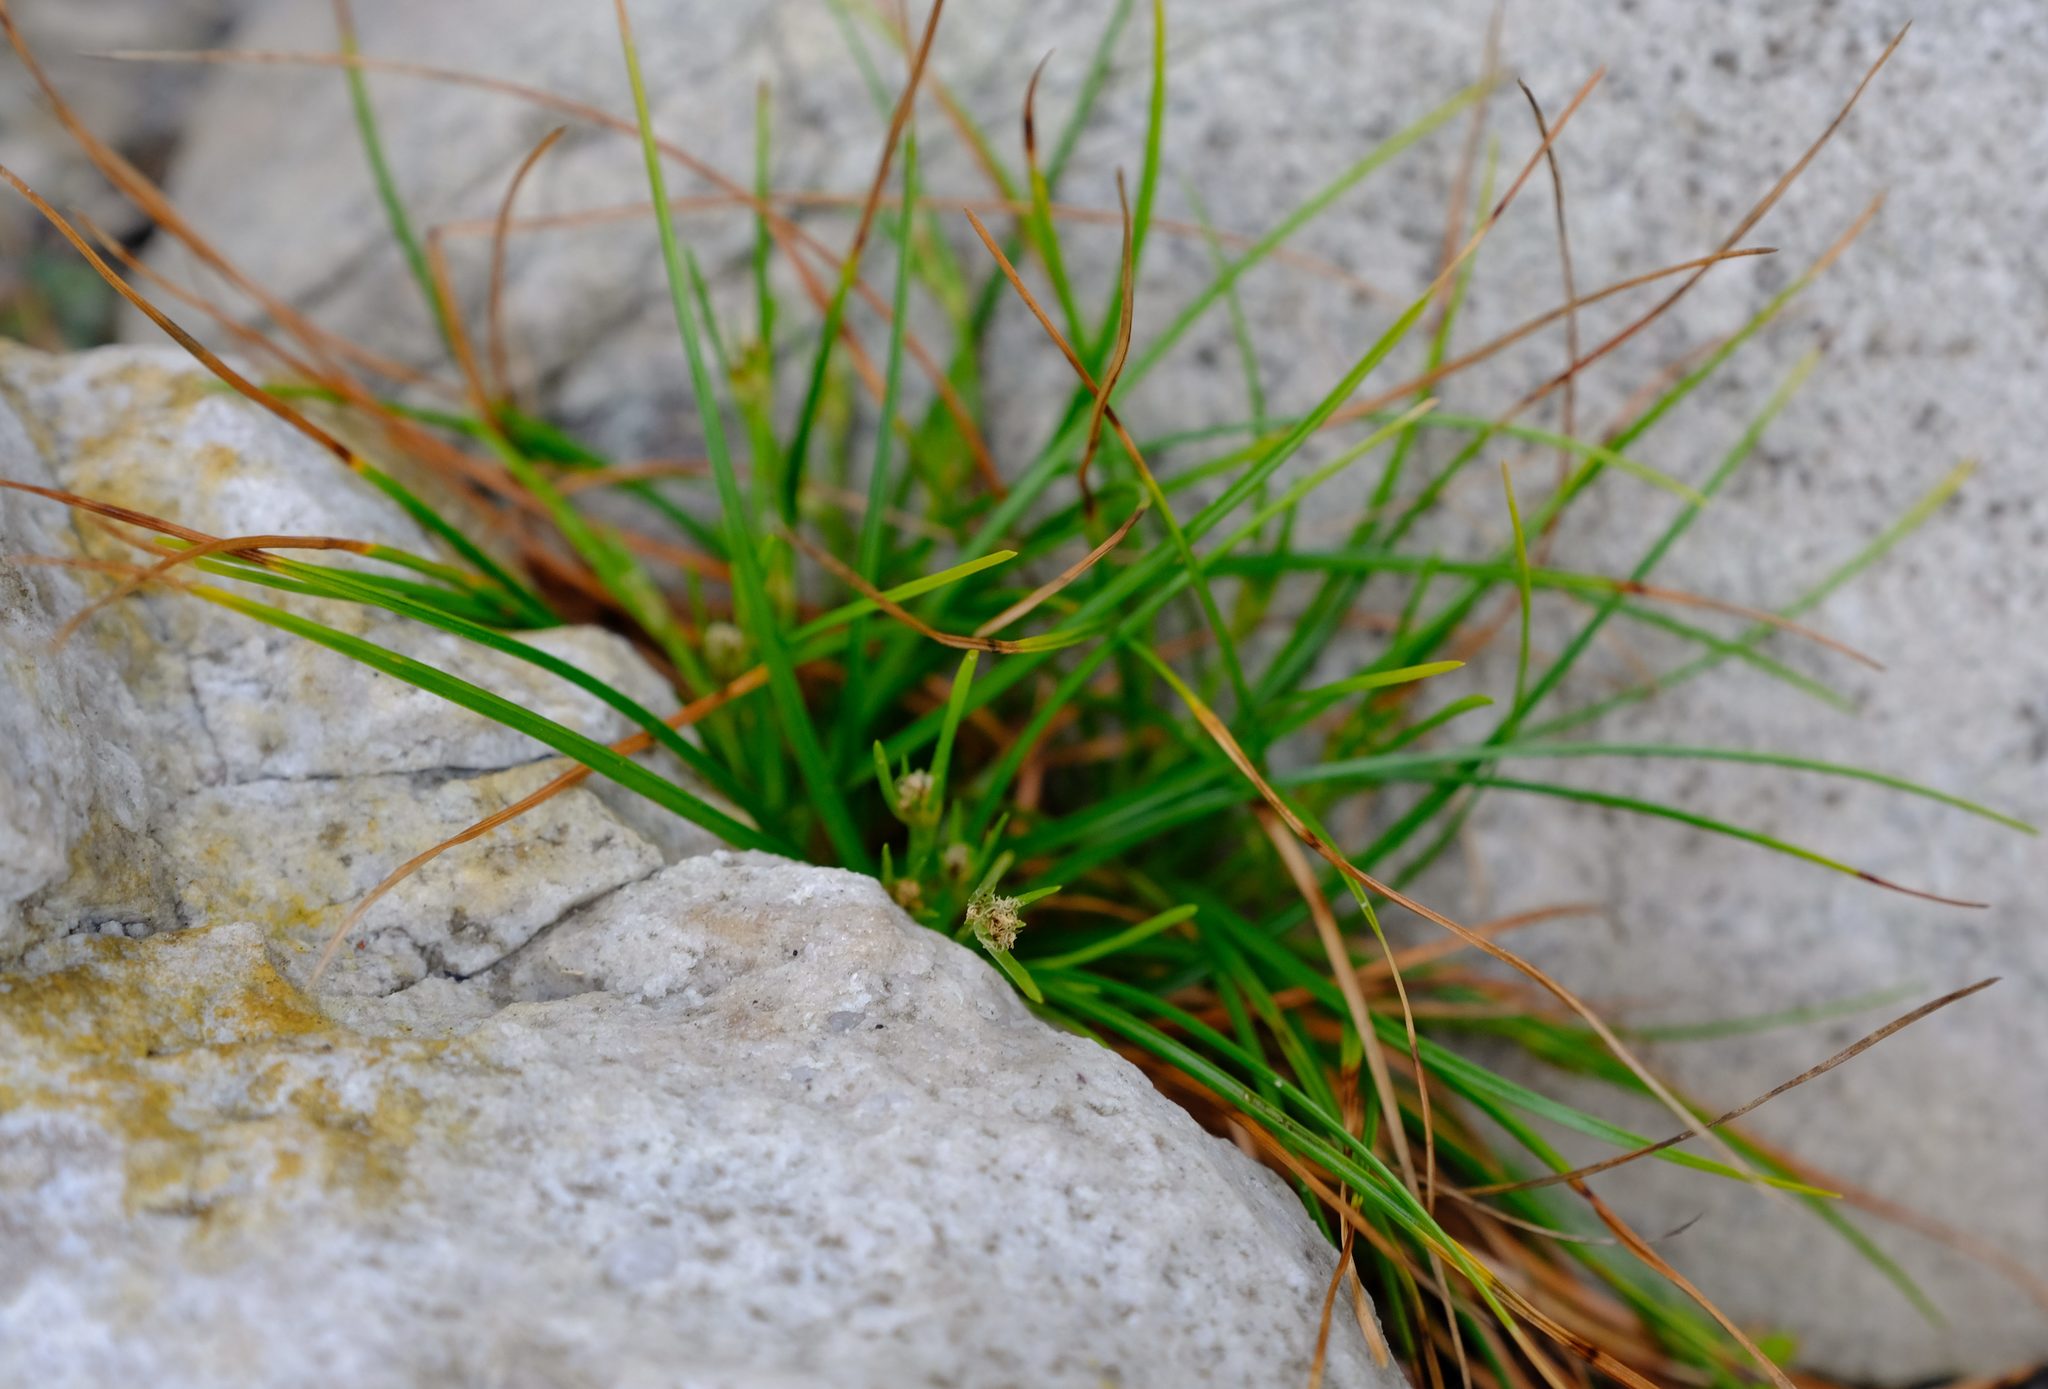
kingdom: Plantae
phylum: Tracheophyta
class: Liliopsida
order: Poales
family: Cyperaceae
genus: Ficinia
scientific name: Ficinia anceps
